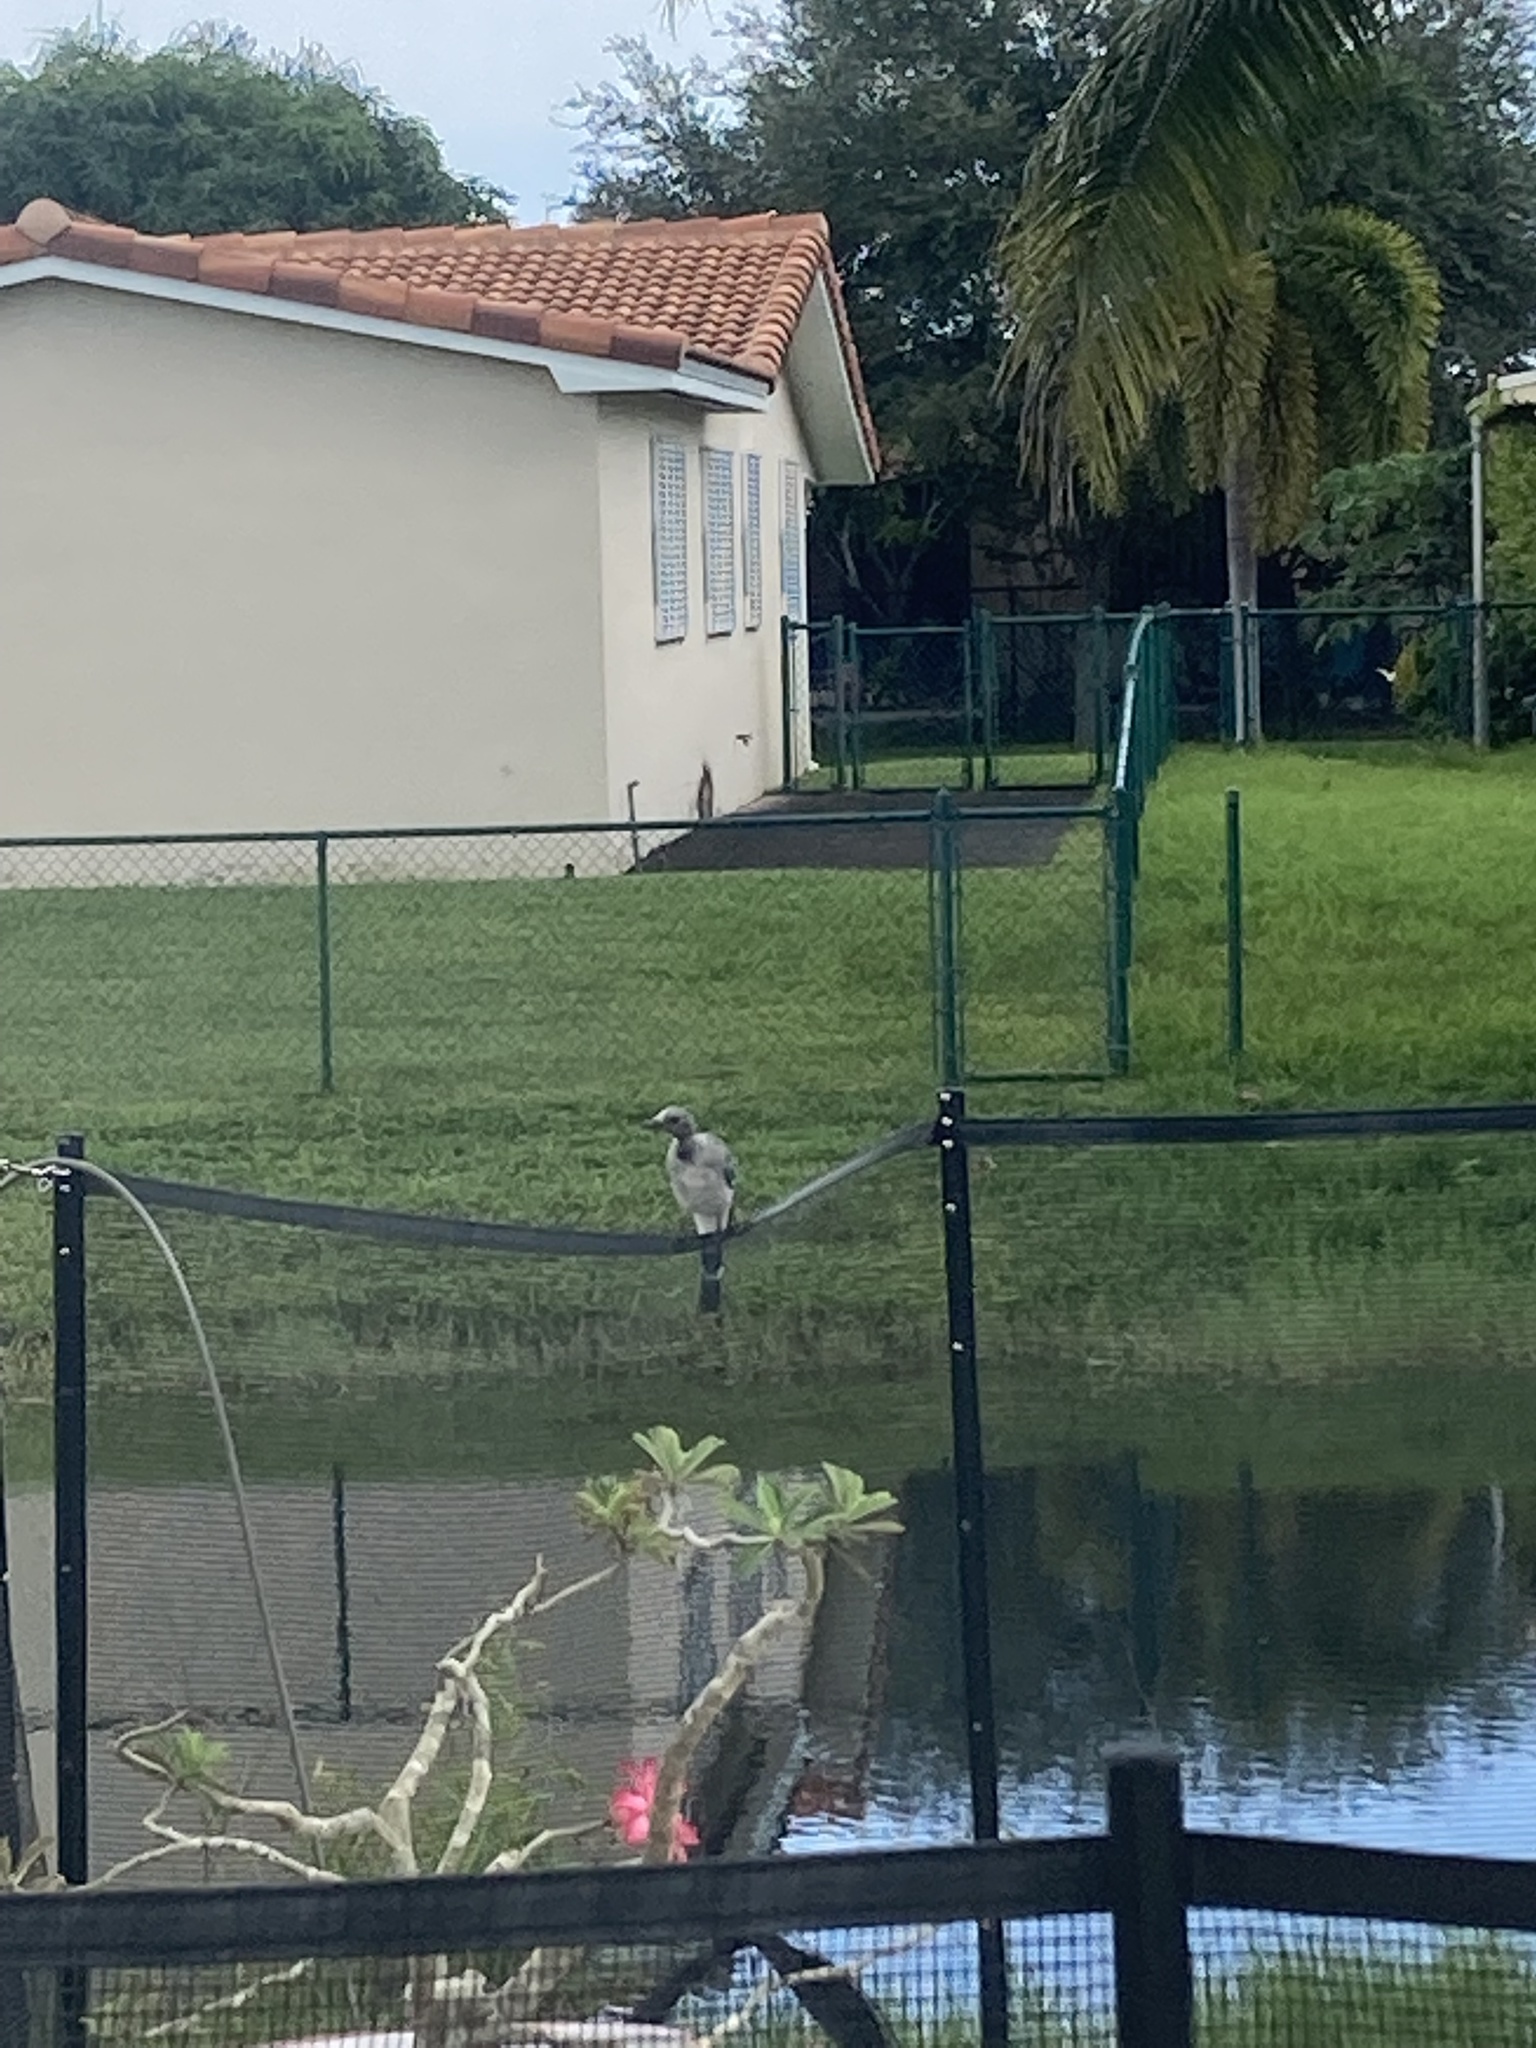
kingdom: Animalia
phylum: Chordata
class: Aves
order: Passeriformes
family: Corvidae
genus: Cyanocitta
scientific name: Cyanocitta cristata
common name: Blue jay
